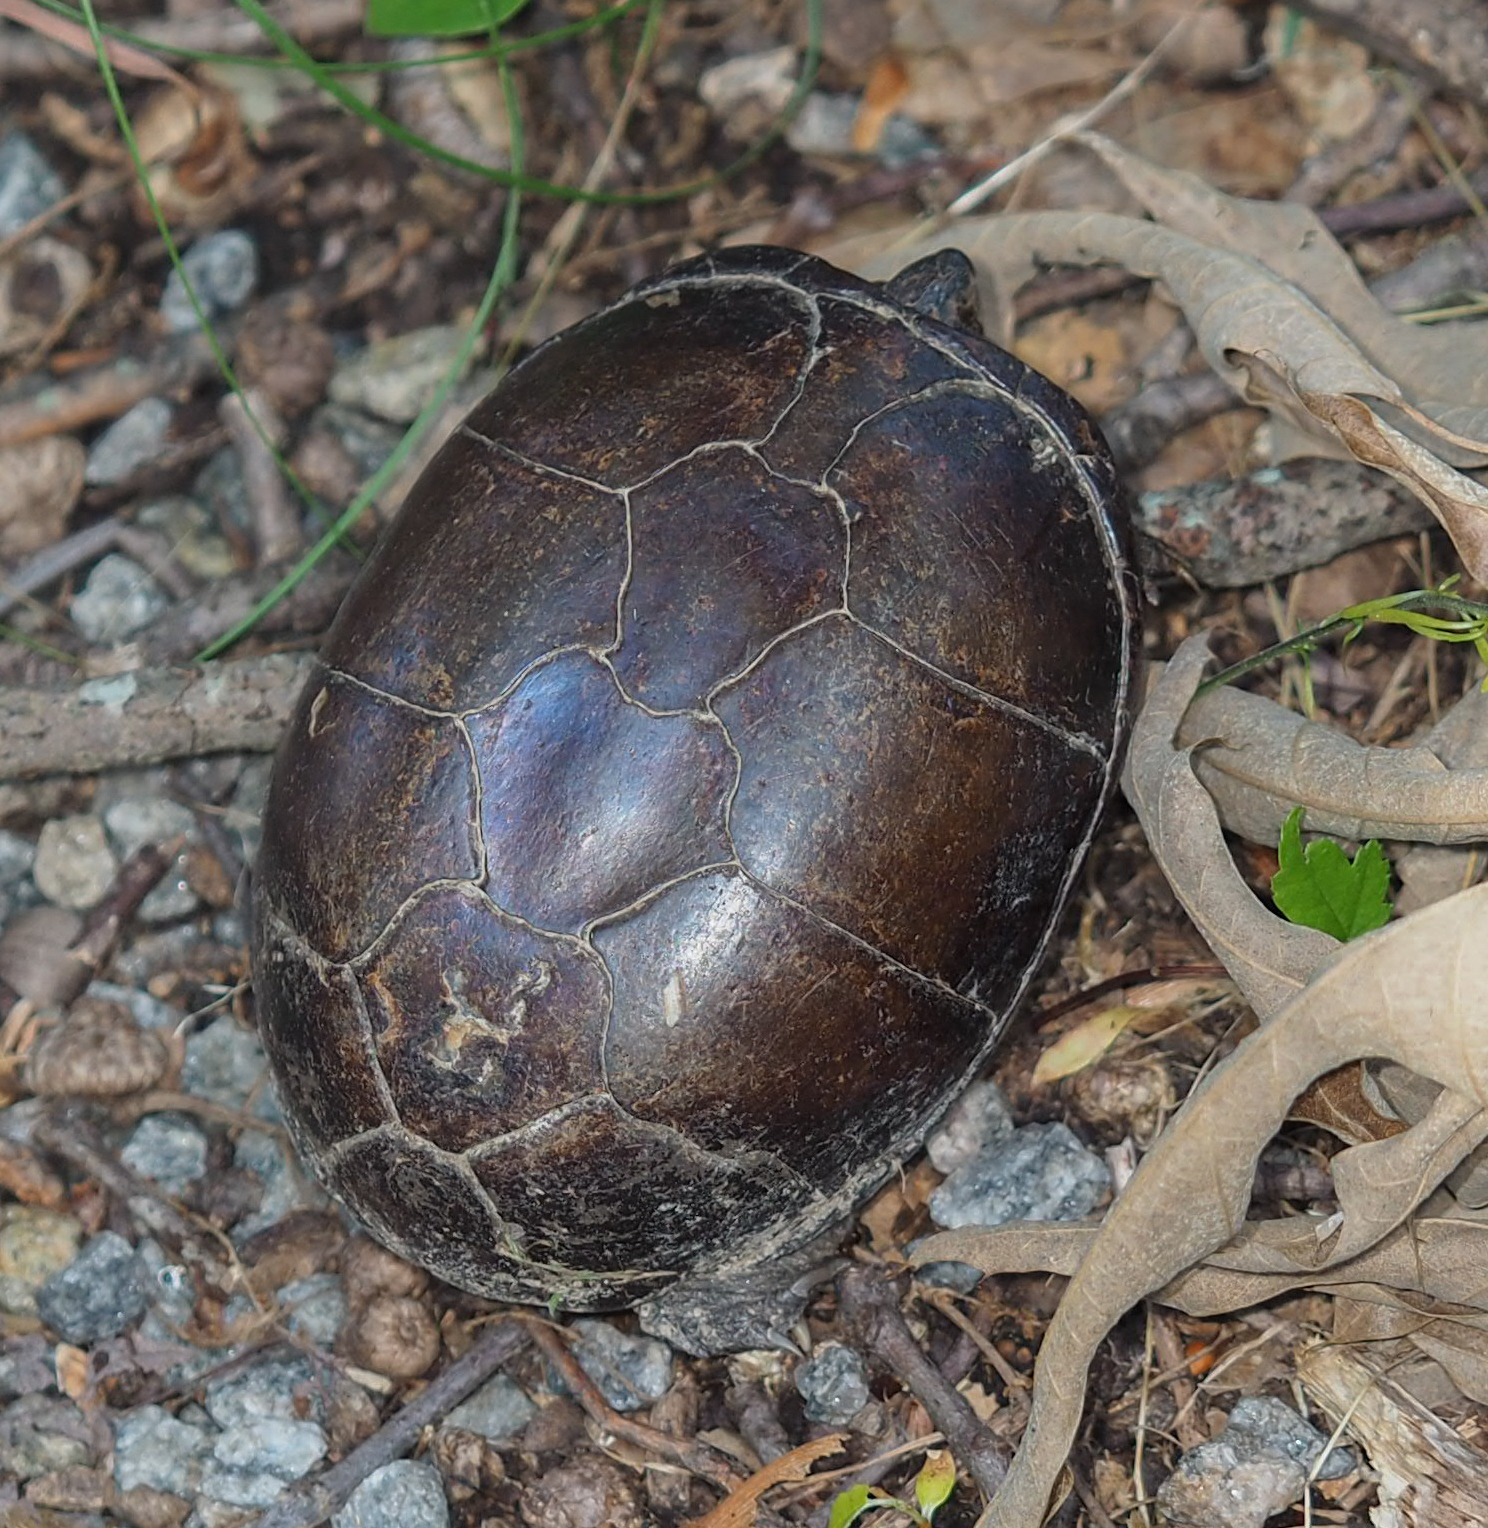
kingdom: Animalia
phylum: Chordata
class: Testudines
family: Kinosternidae
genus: Kinosternon
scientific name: Kinosternon subrubrum
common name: Eastern mud turtle
